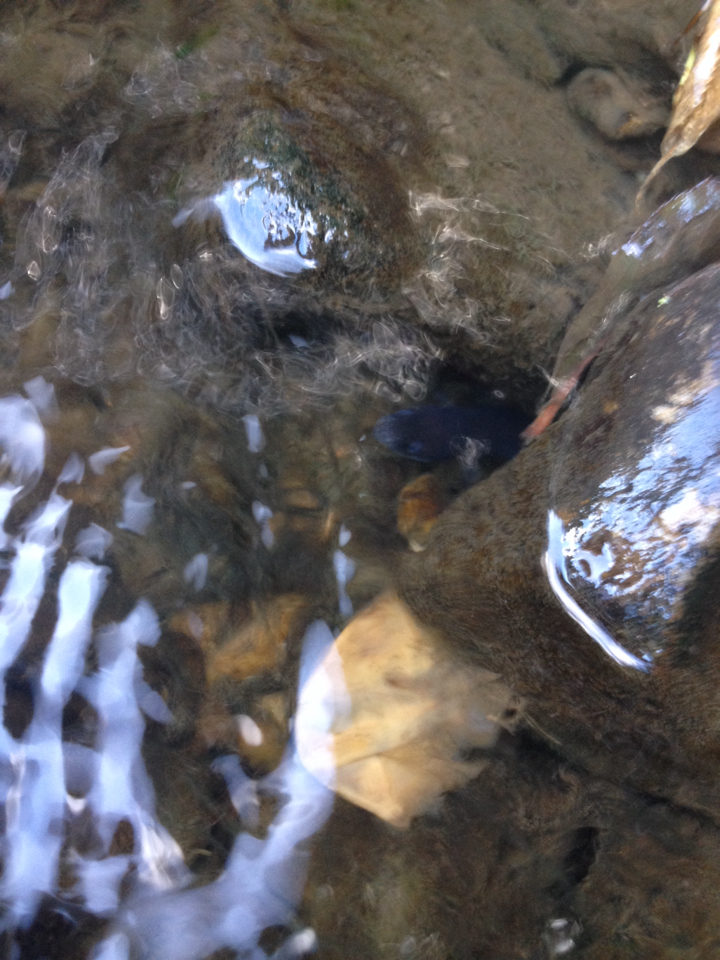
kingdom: Animalia
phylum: Chordata
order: Anguilliformes
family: Anguillidae
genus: Anguilla
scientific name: Anguilla
